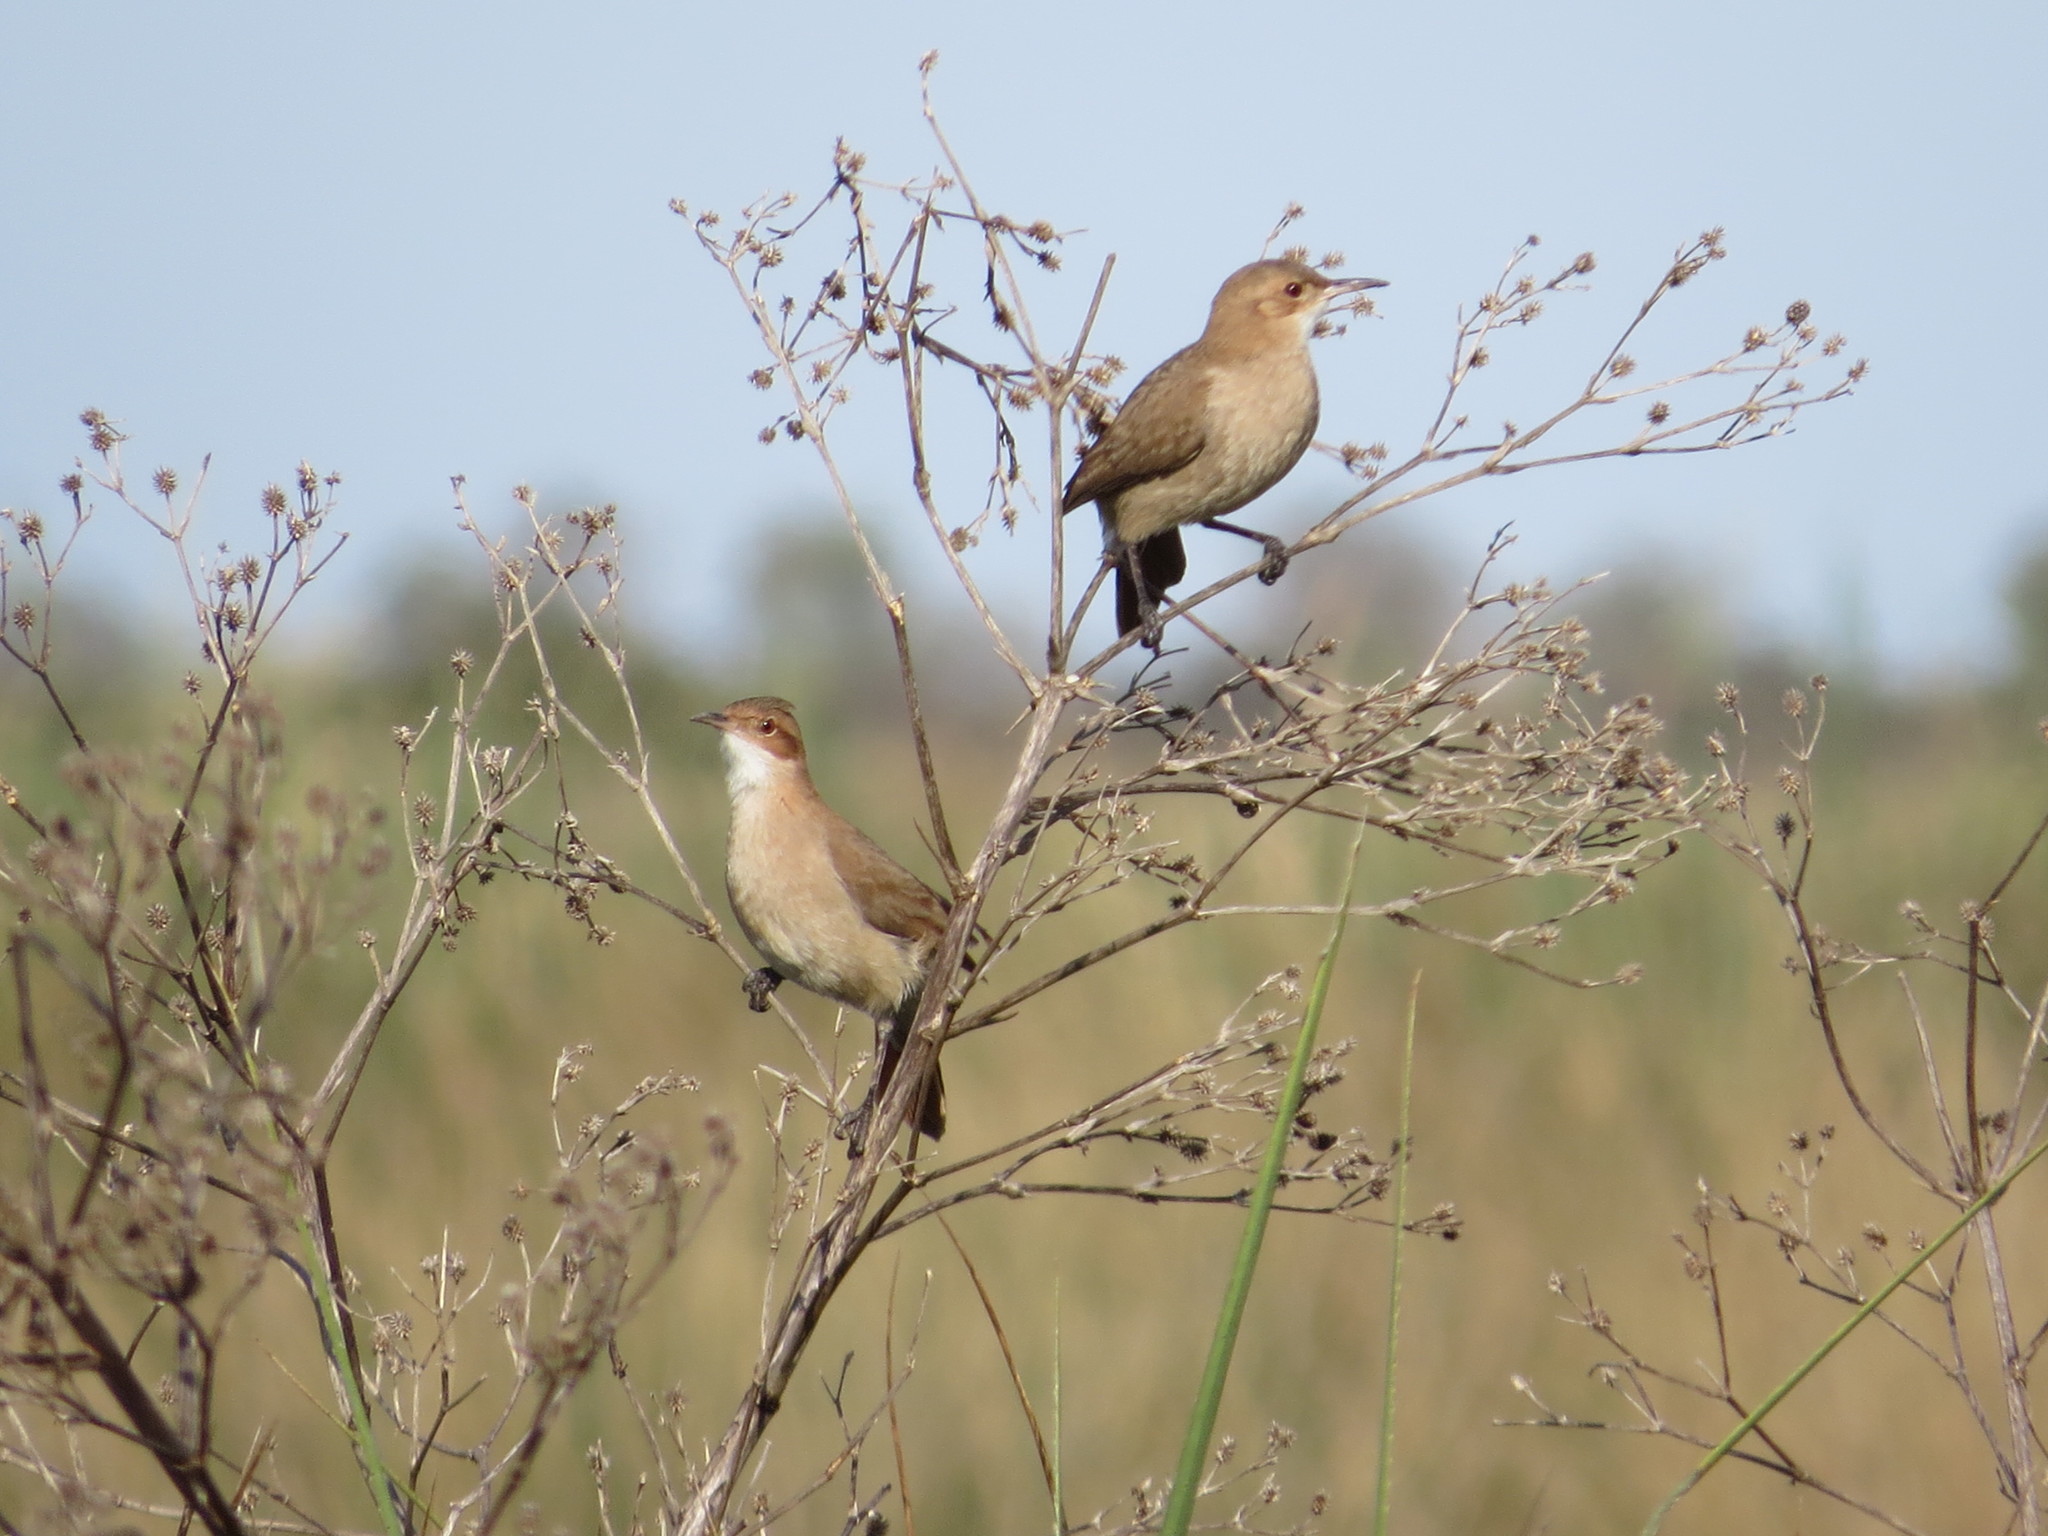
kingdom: Animalia
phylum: Chordata
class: Aves
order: Passeriformes
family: Furnariidae
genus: Furnarius
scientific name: Furnarius rufus
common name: Rufous hornero
